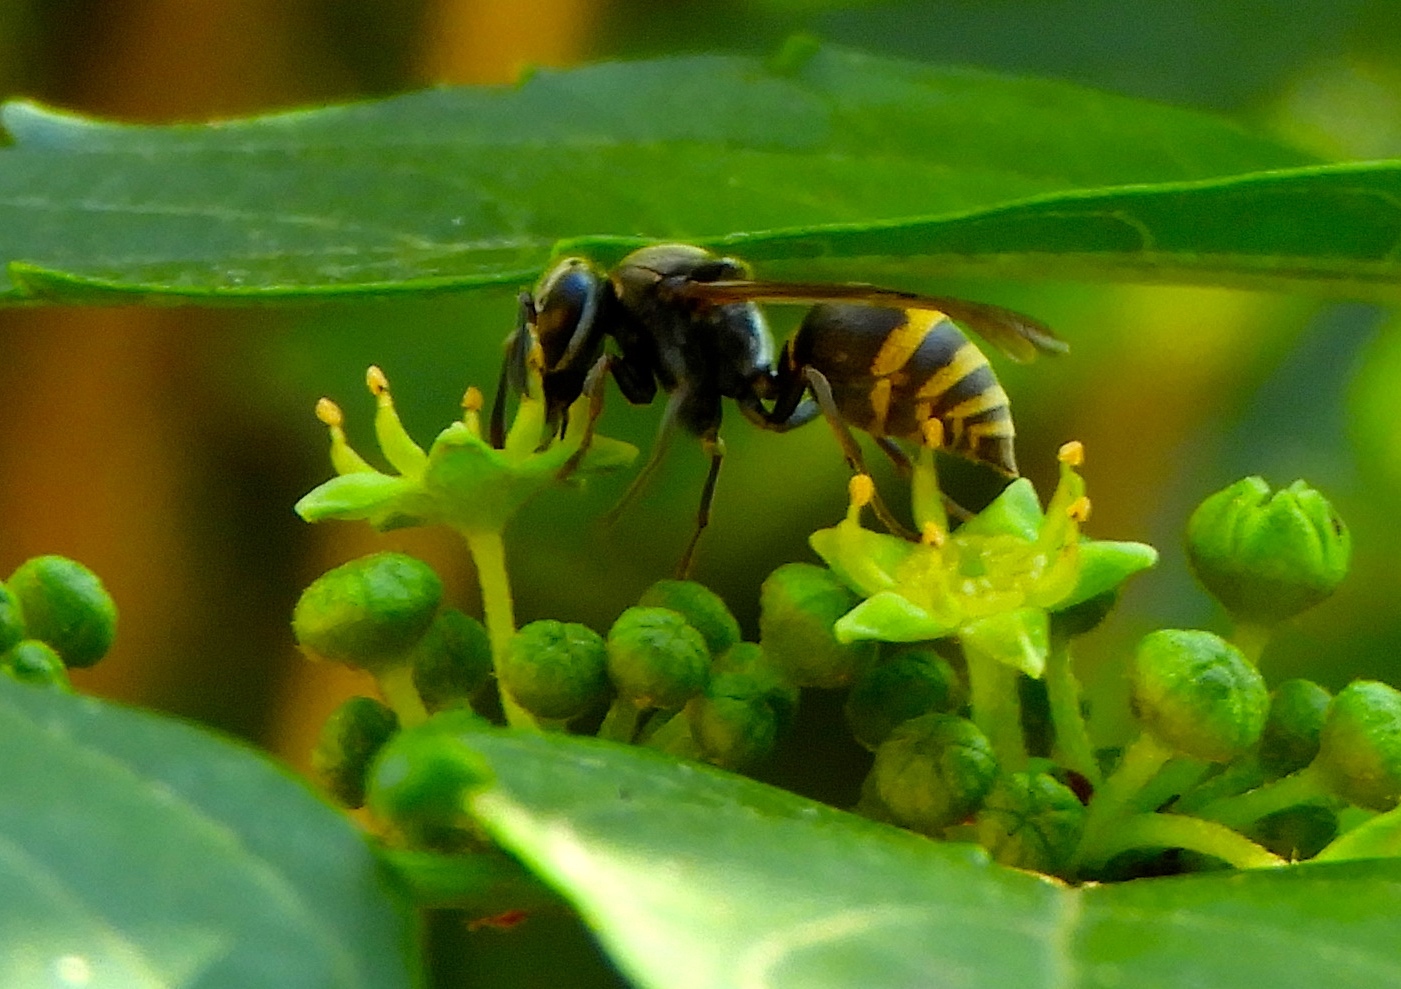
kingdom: Animalia
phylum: Arthropoda
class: Insecta
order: Hymenoptera
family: Vespidae
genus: Brachygastra
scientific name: Brachygastra azteca
